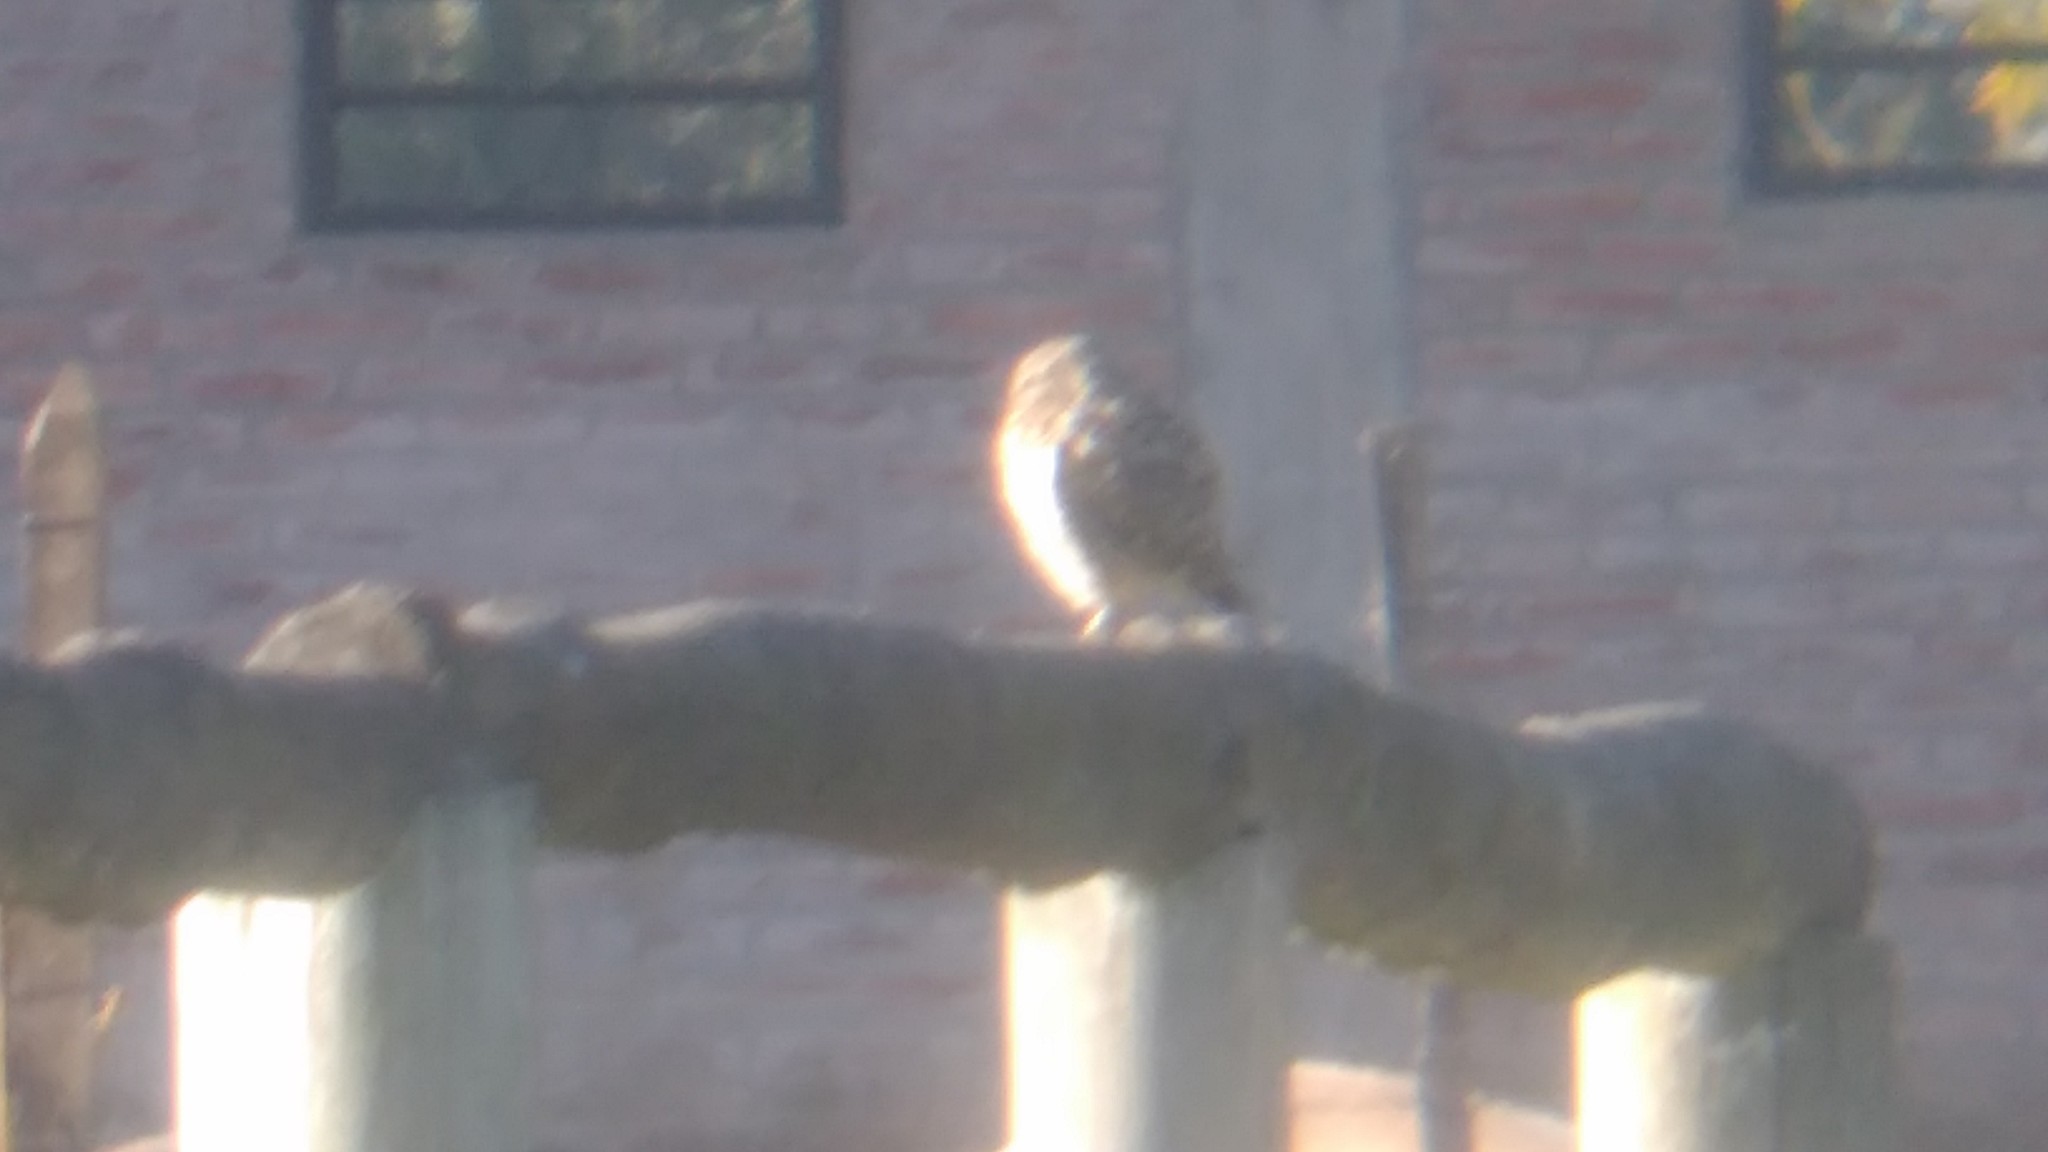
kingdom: Animalia
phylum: Chordata
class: Aves
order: Strigiformes
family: Strigidae
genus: Athene
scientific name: Athene cunicularia
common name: Burrowing owl
